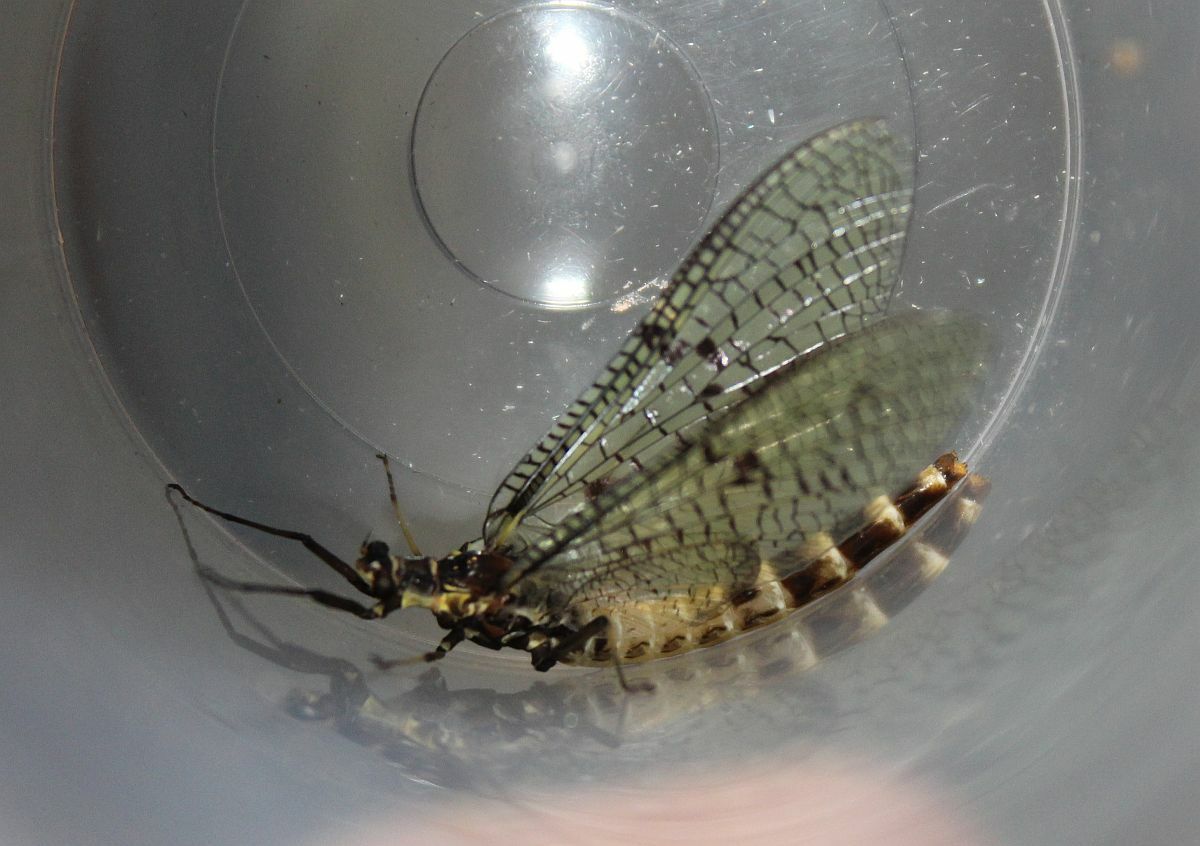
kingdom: Animalia
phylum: Arthropoda
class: Insecta
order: Ephemeroptera
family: Ephemeridae
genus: Ephemera
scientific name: Ephemera danica
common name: Green dun
